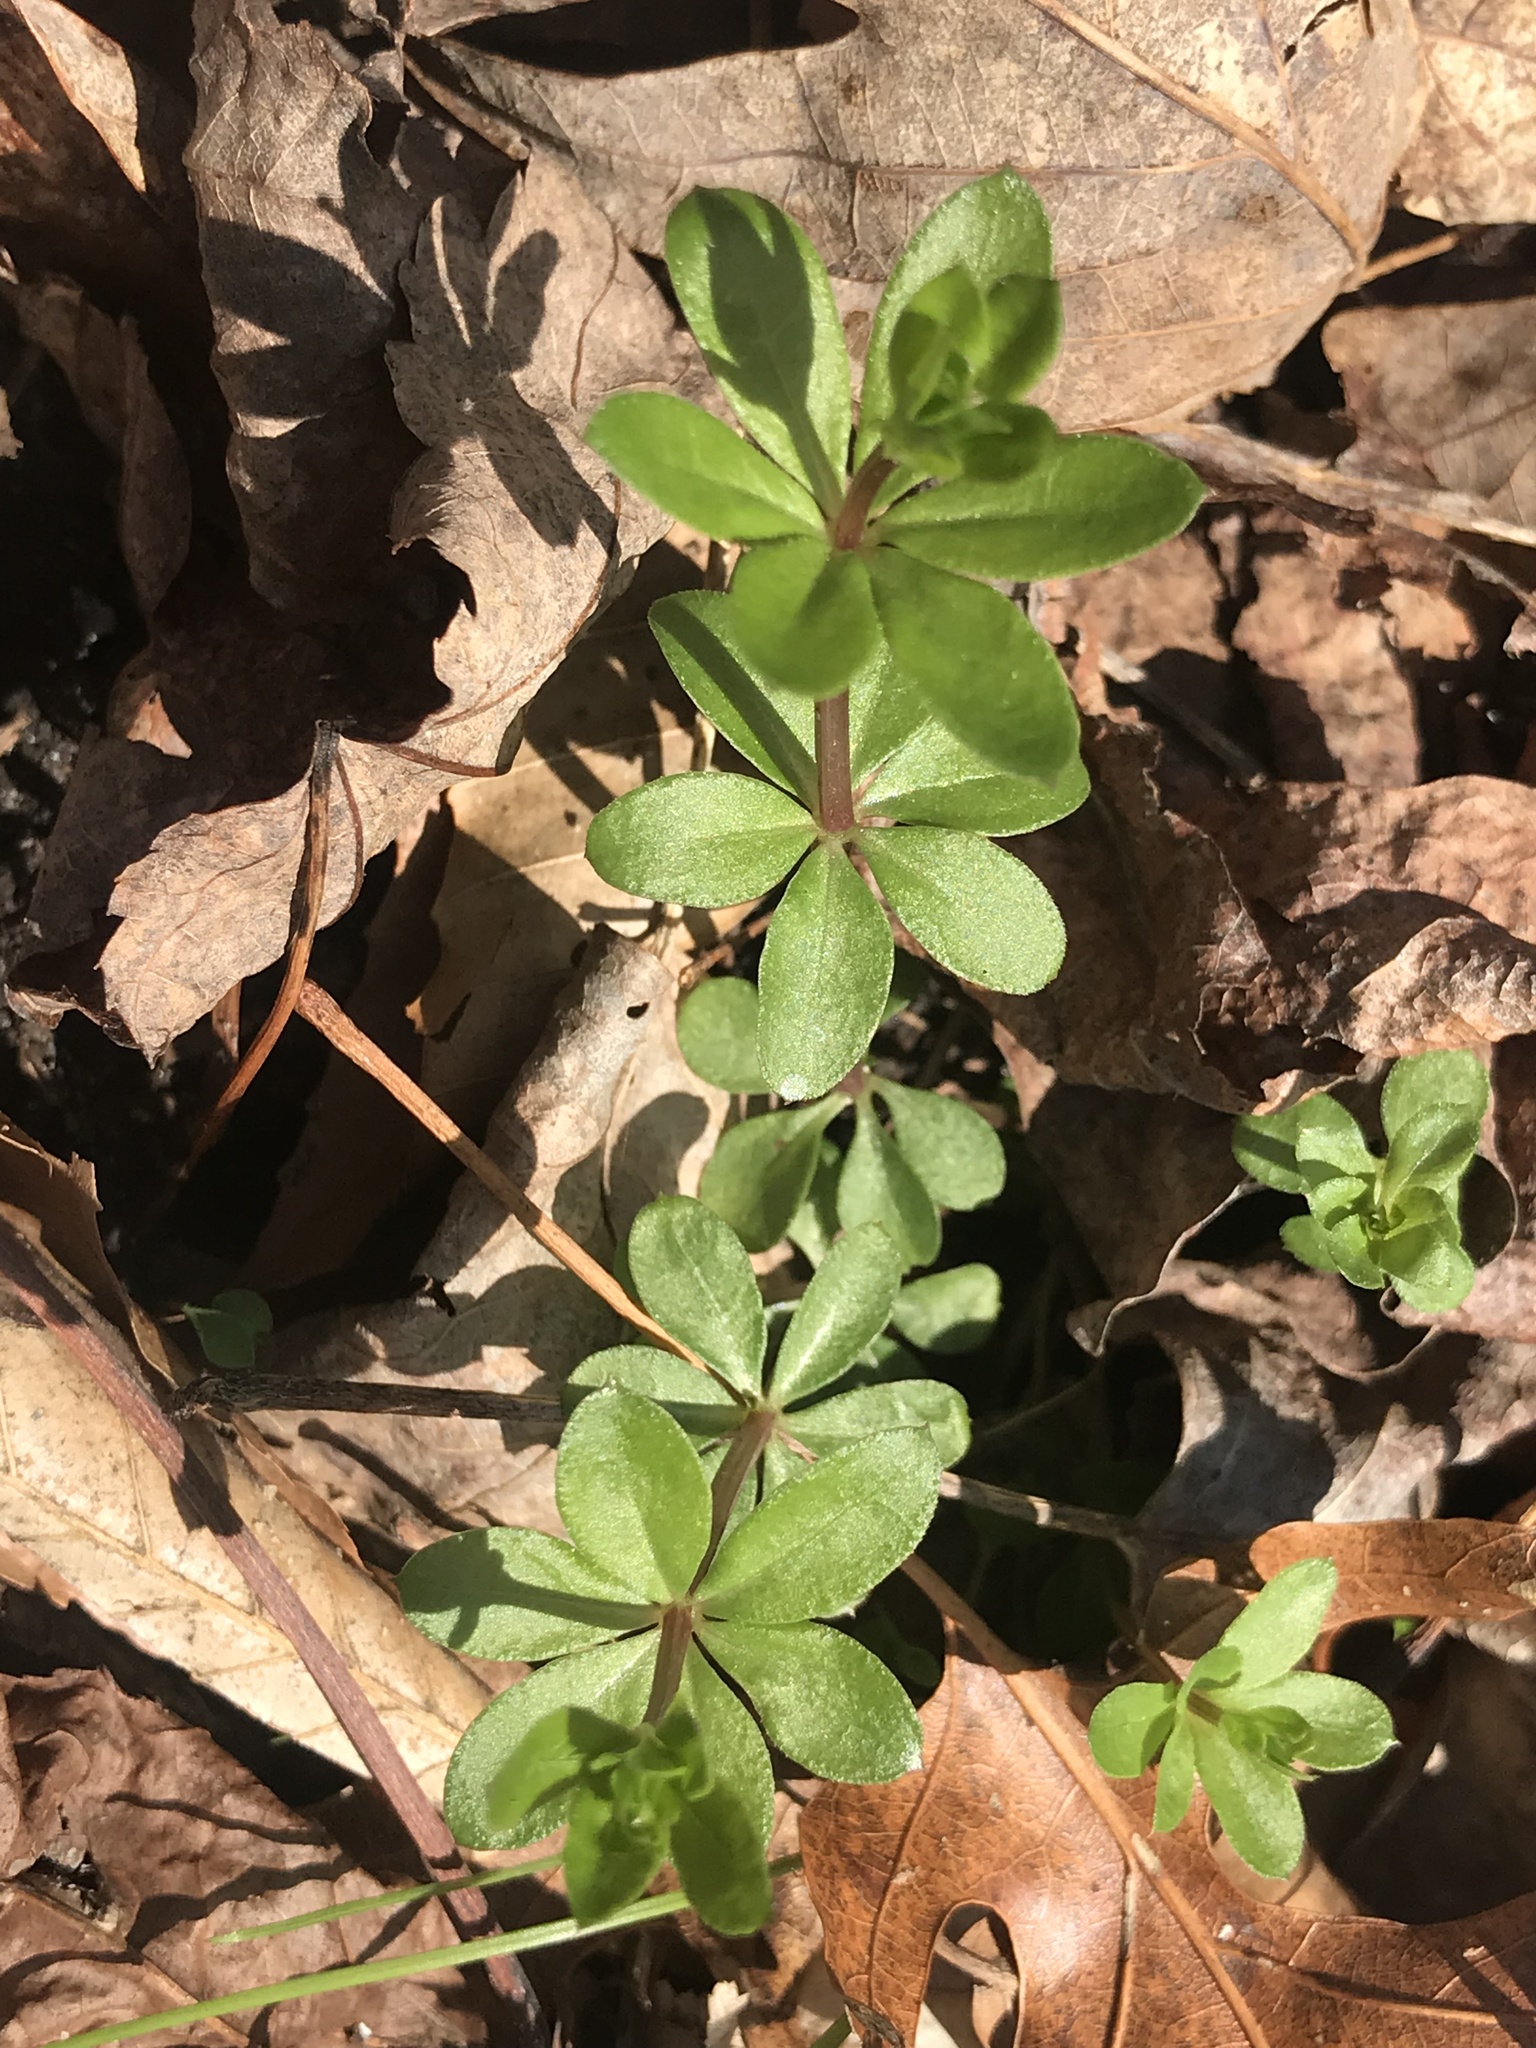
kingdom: Plantae
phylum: Tracheophyta
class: Magnoliopsida
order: Gentianales
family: Rubiaceae
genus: Galium
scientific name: Galium triflorum
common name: Fragrant bedstraw
